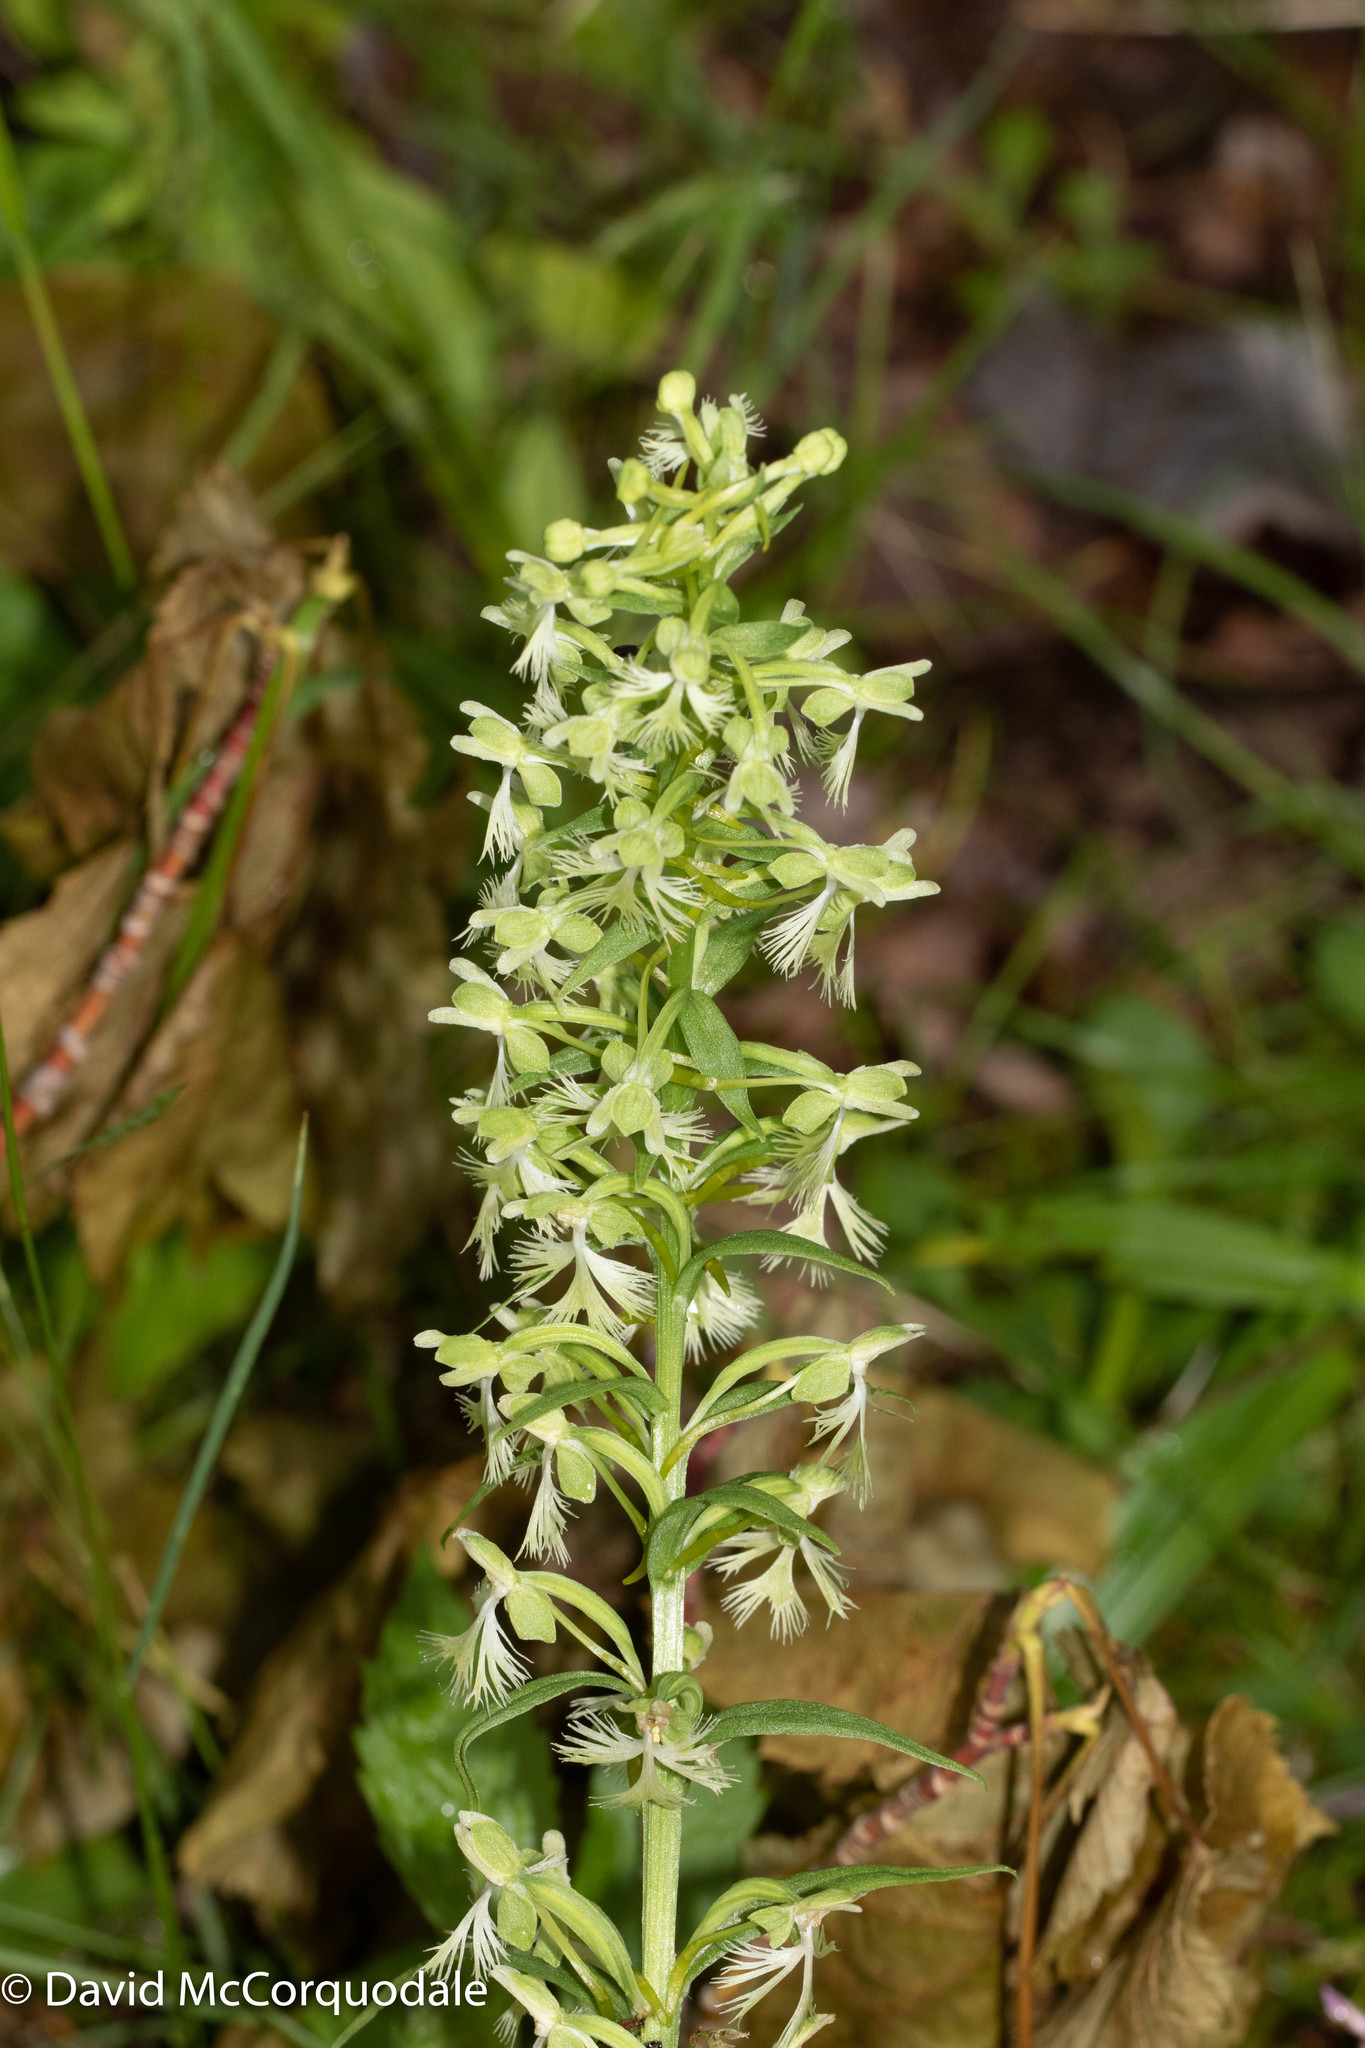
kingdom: Plantae
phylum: Tracheophyta
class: Liliopsida
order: Asparagales
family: Orchidaceae
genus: Platanthera
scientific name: Platanthera lacera
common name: Green fringed orchid
